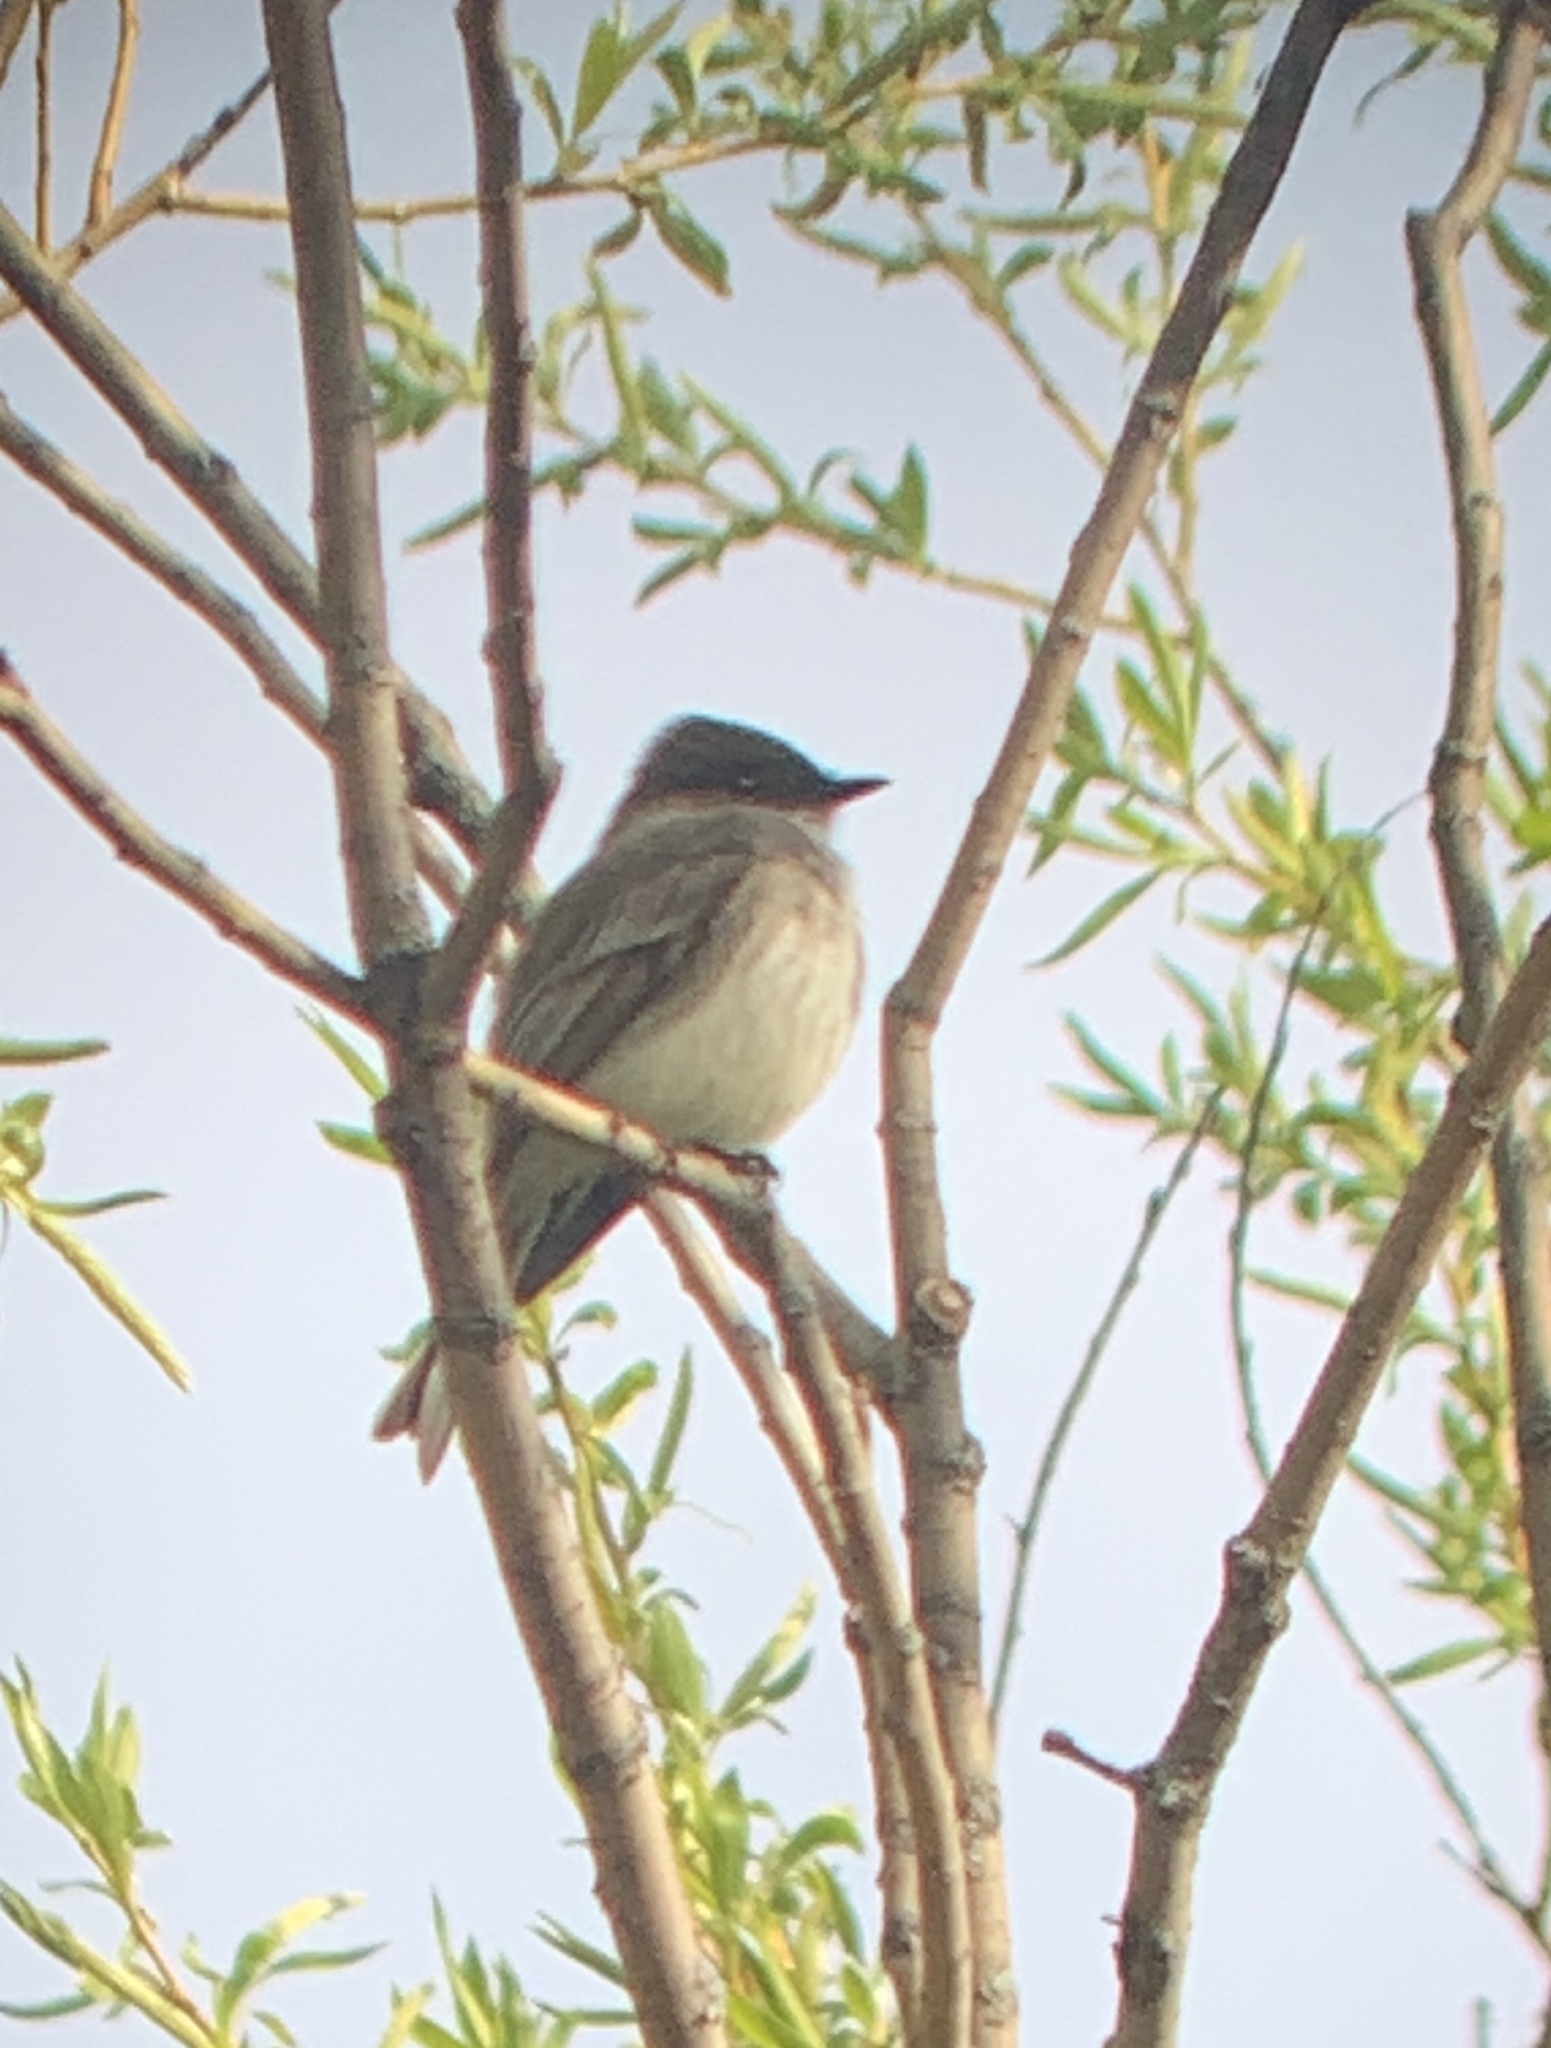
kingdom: Animalia
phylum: Chordata
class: Aves
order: Passeriformes
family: Tyrannidae
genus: Sayornis
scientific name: Sayornis phoebe
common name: Eastern phoebe
